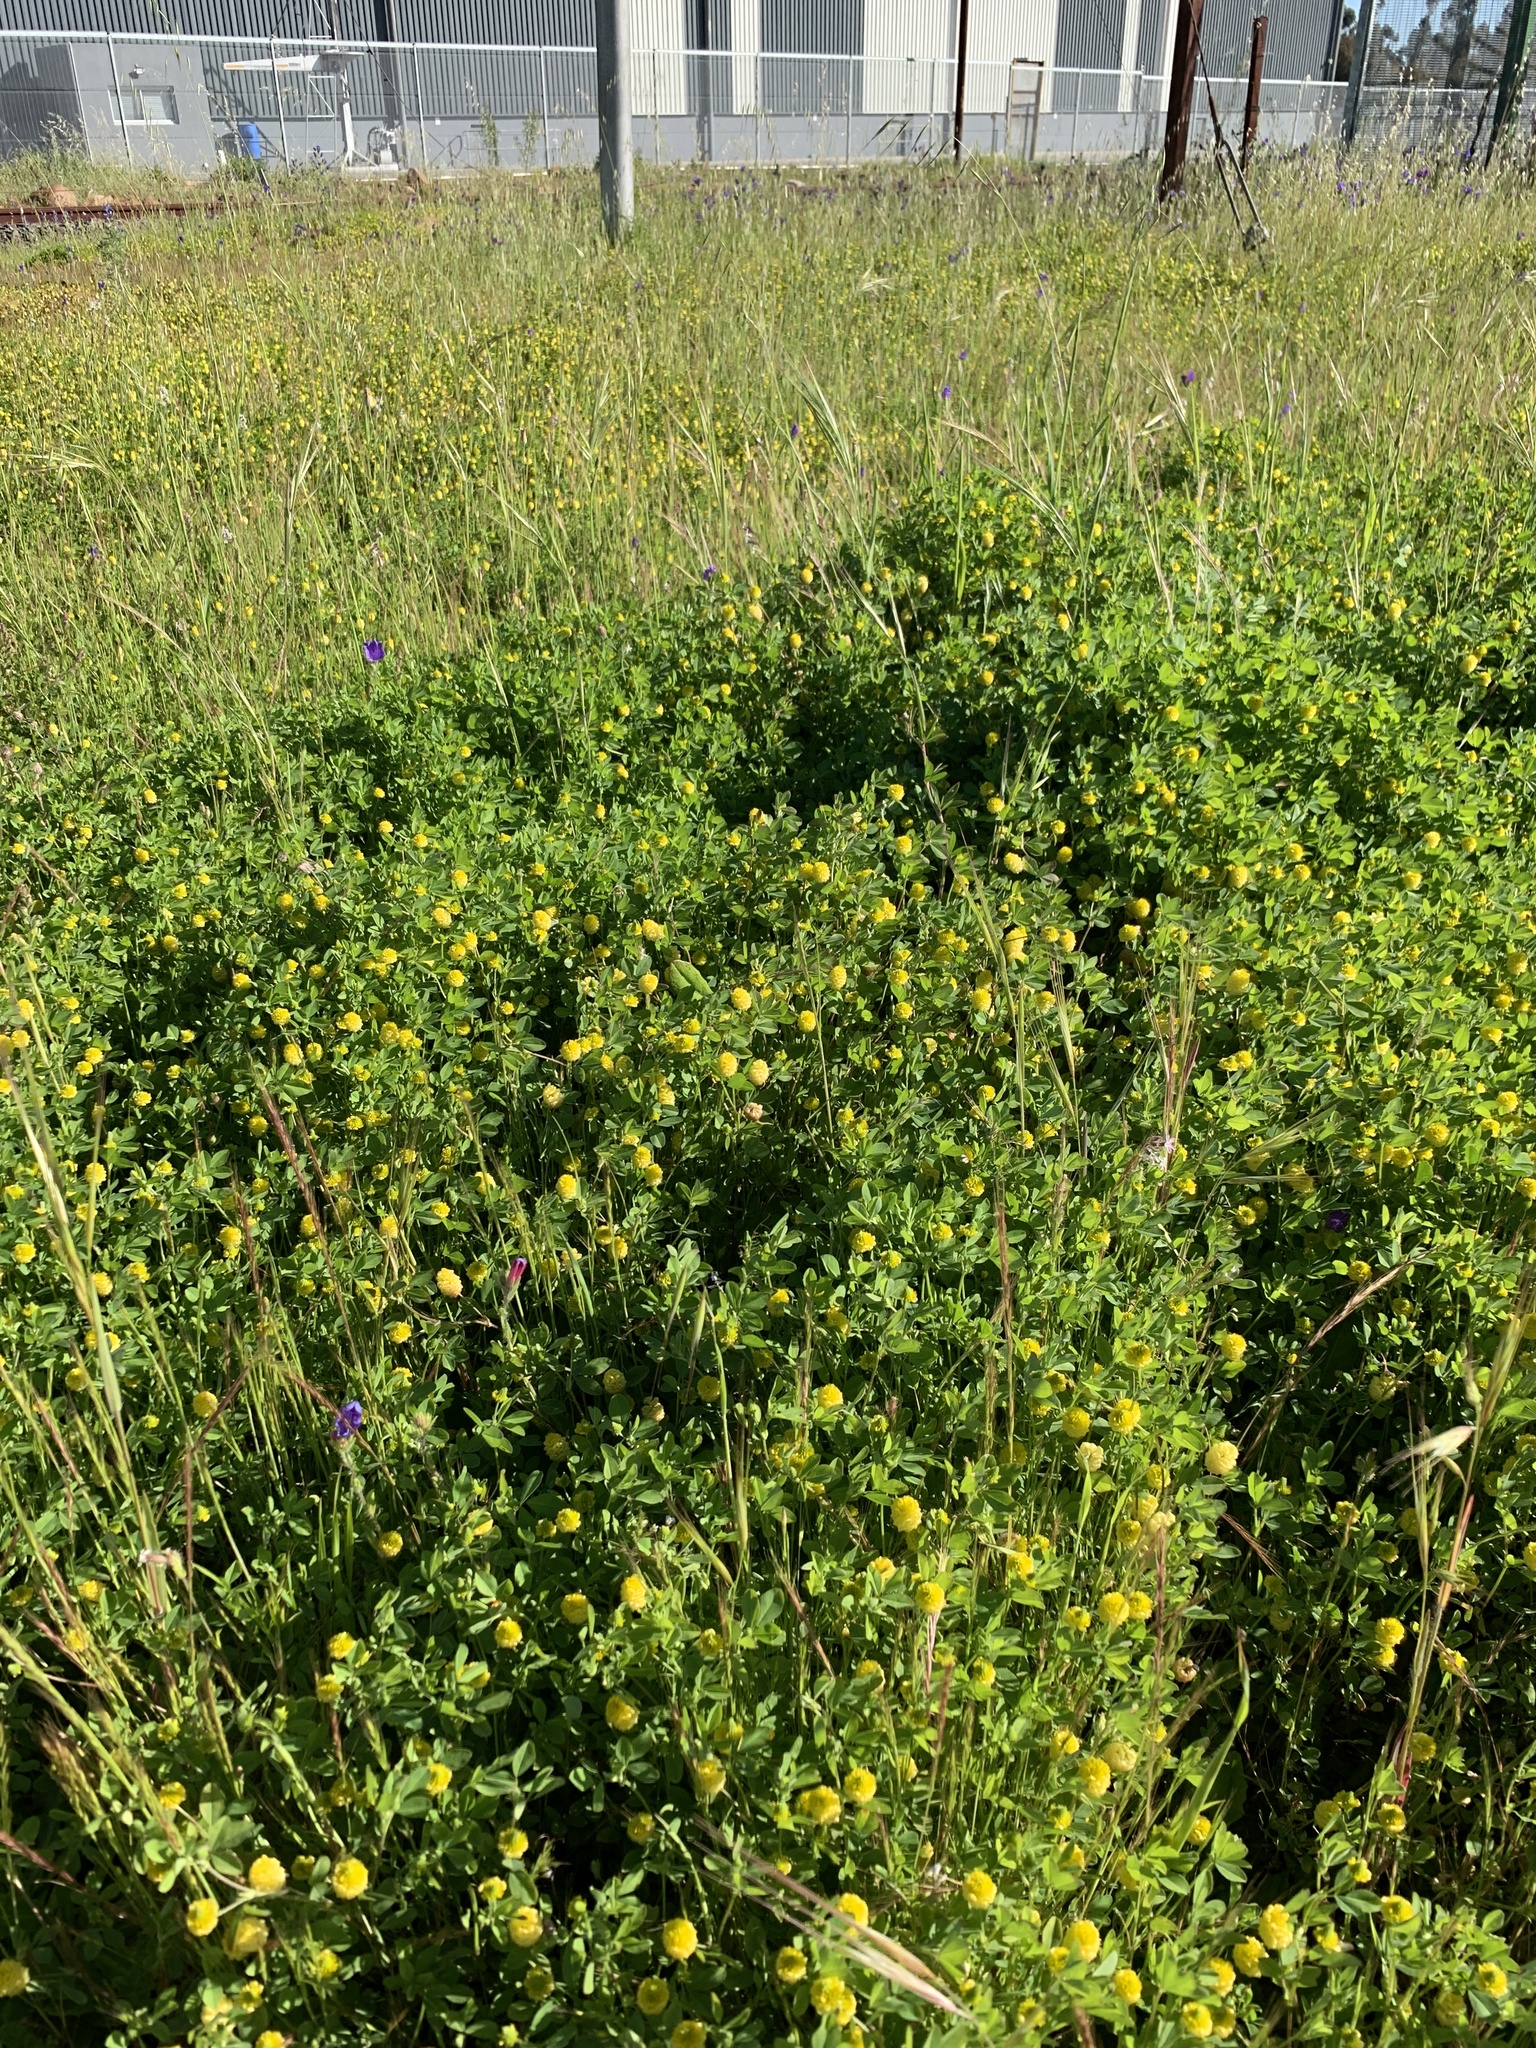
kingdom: Plantae
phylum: Tracheophyta
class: Magnoliopsida
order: Fabales
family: Fabaceae
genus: Trifolium
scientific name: Trifolium campestre
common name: Field clover
